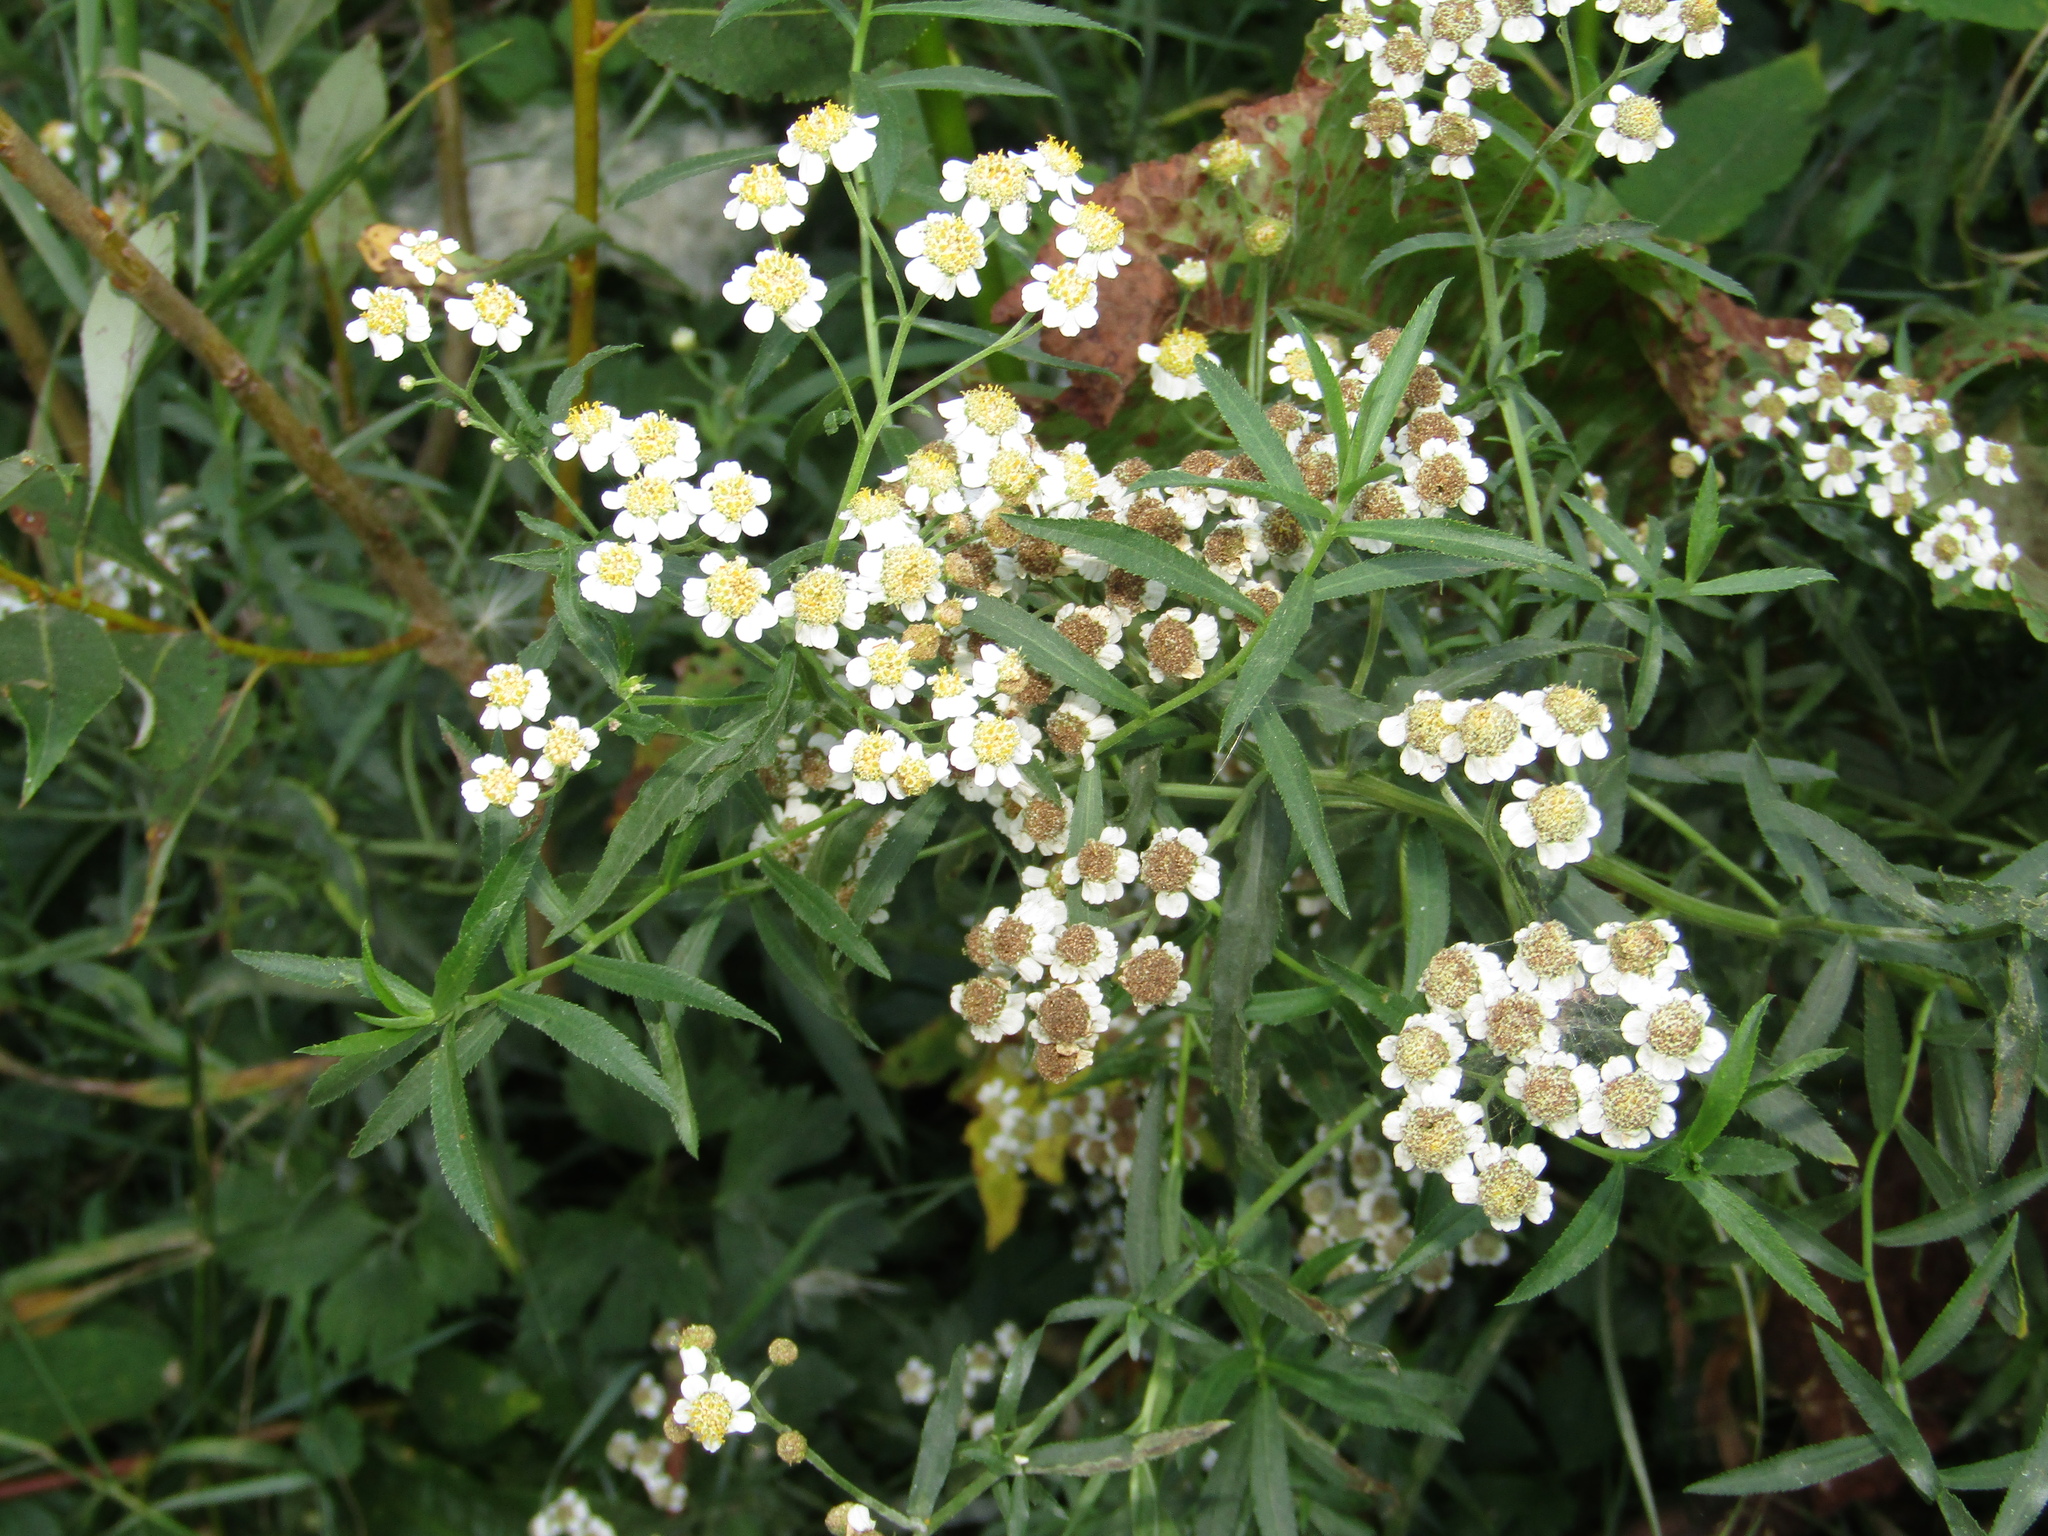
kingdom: Plantae
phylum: Tracheophyta
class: Magnoliopsida
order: Asterales
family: Asteraceae
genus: Achillea
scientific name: Achillea salicifolia
